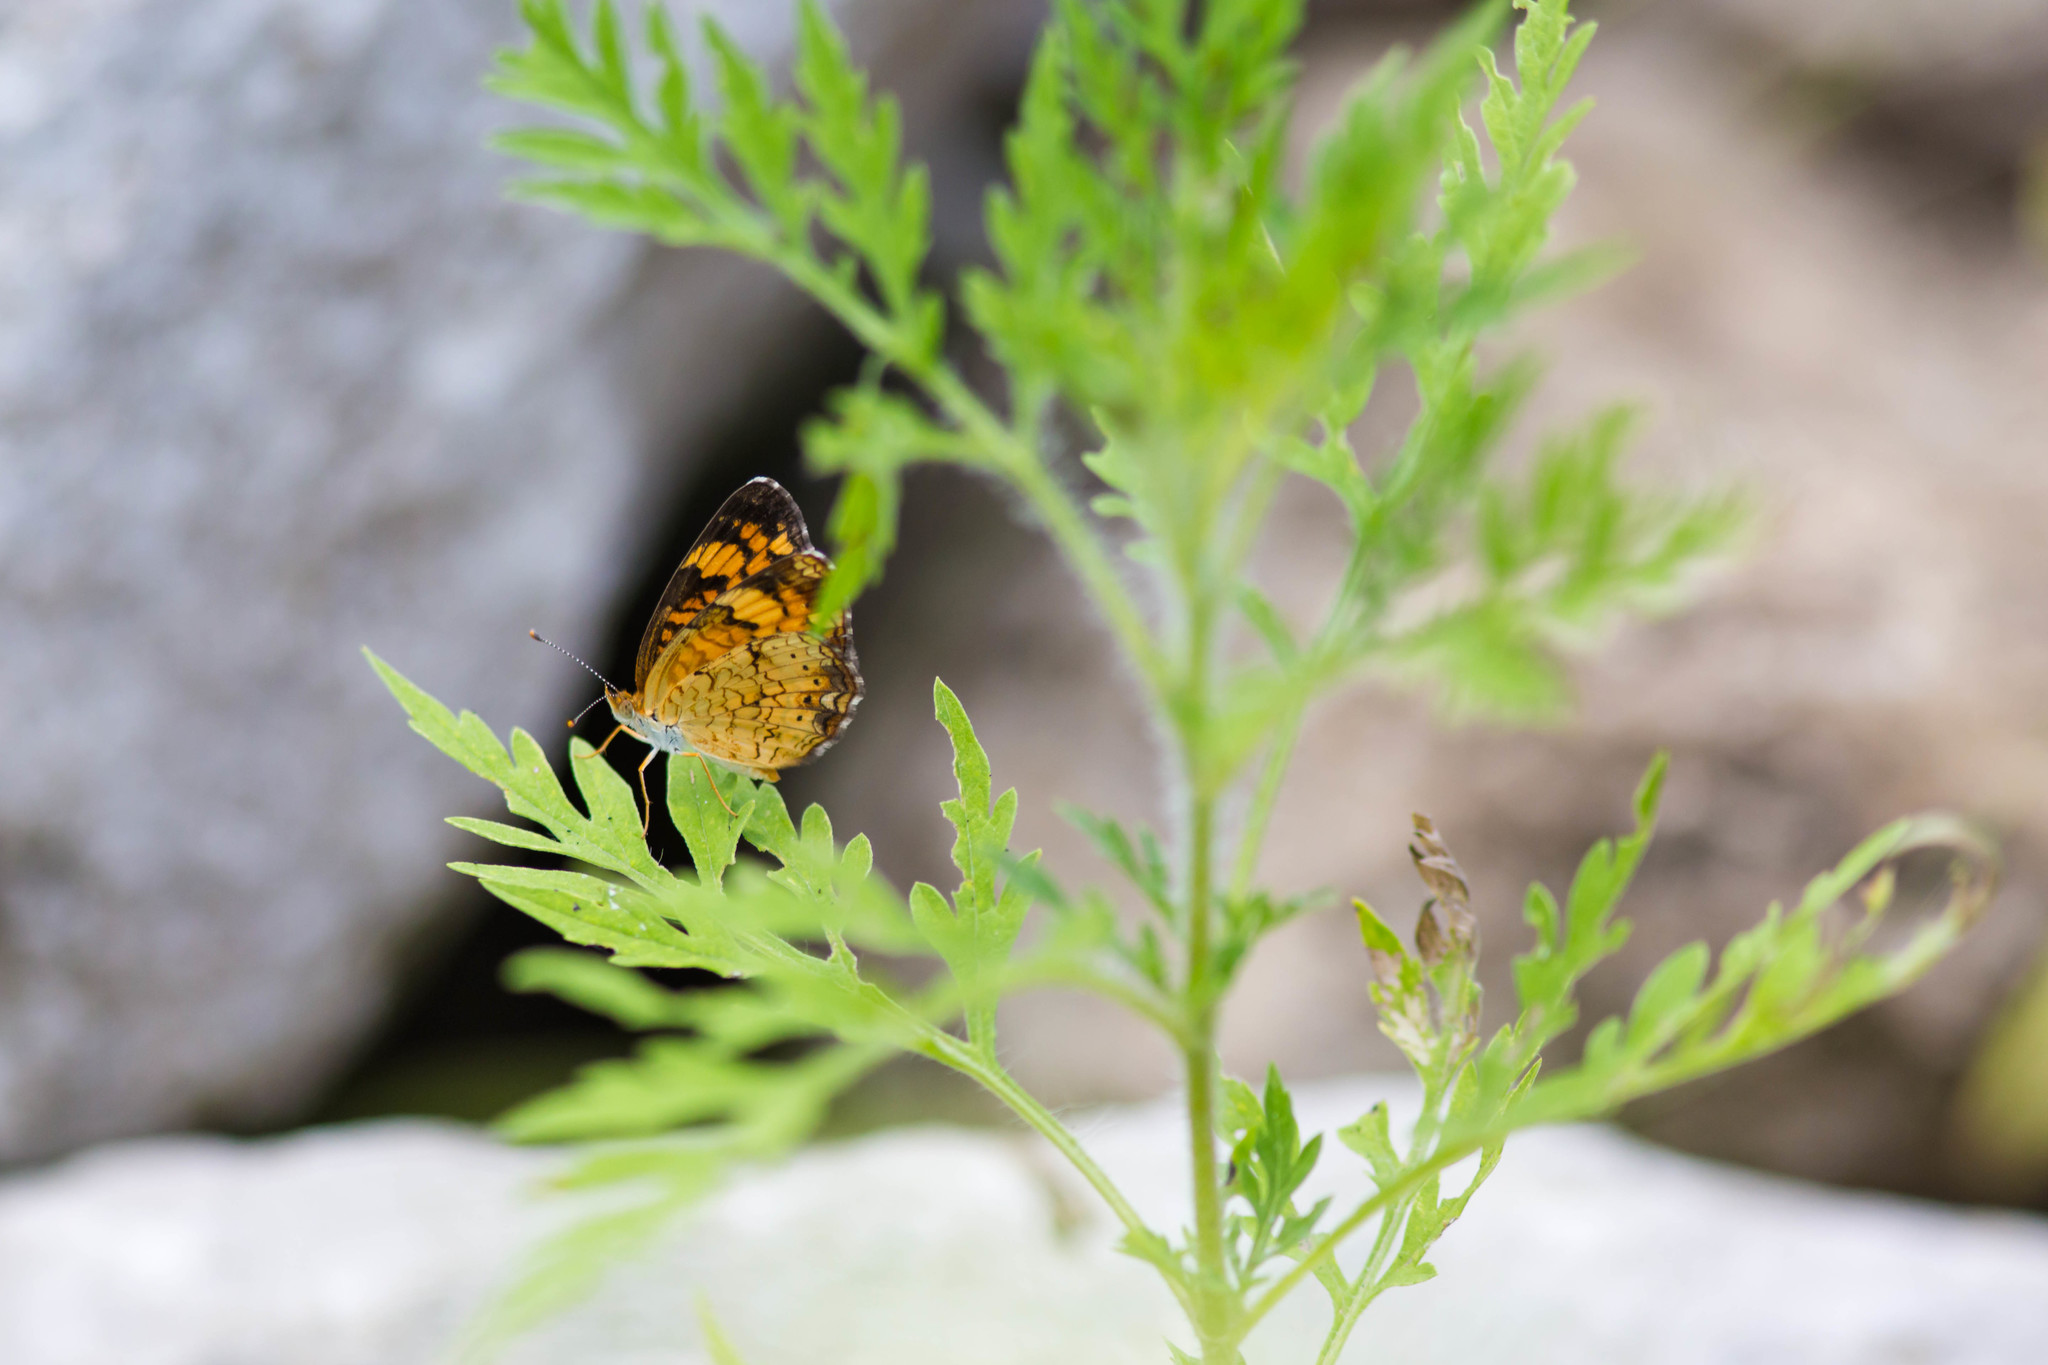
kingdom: Animalia
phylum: Arthropoda
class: Insecta
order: Lepidoptera
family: Nymphalidae
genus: Phyciodes
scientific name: Phyciodes tharos
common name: Pearl crescent
